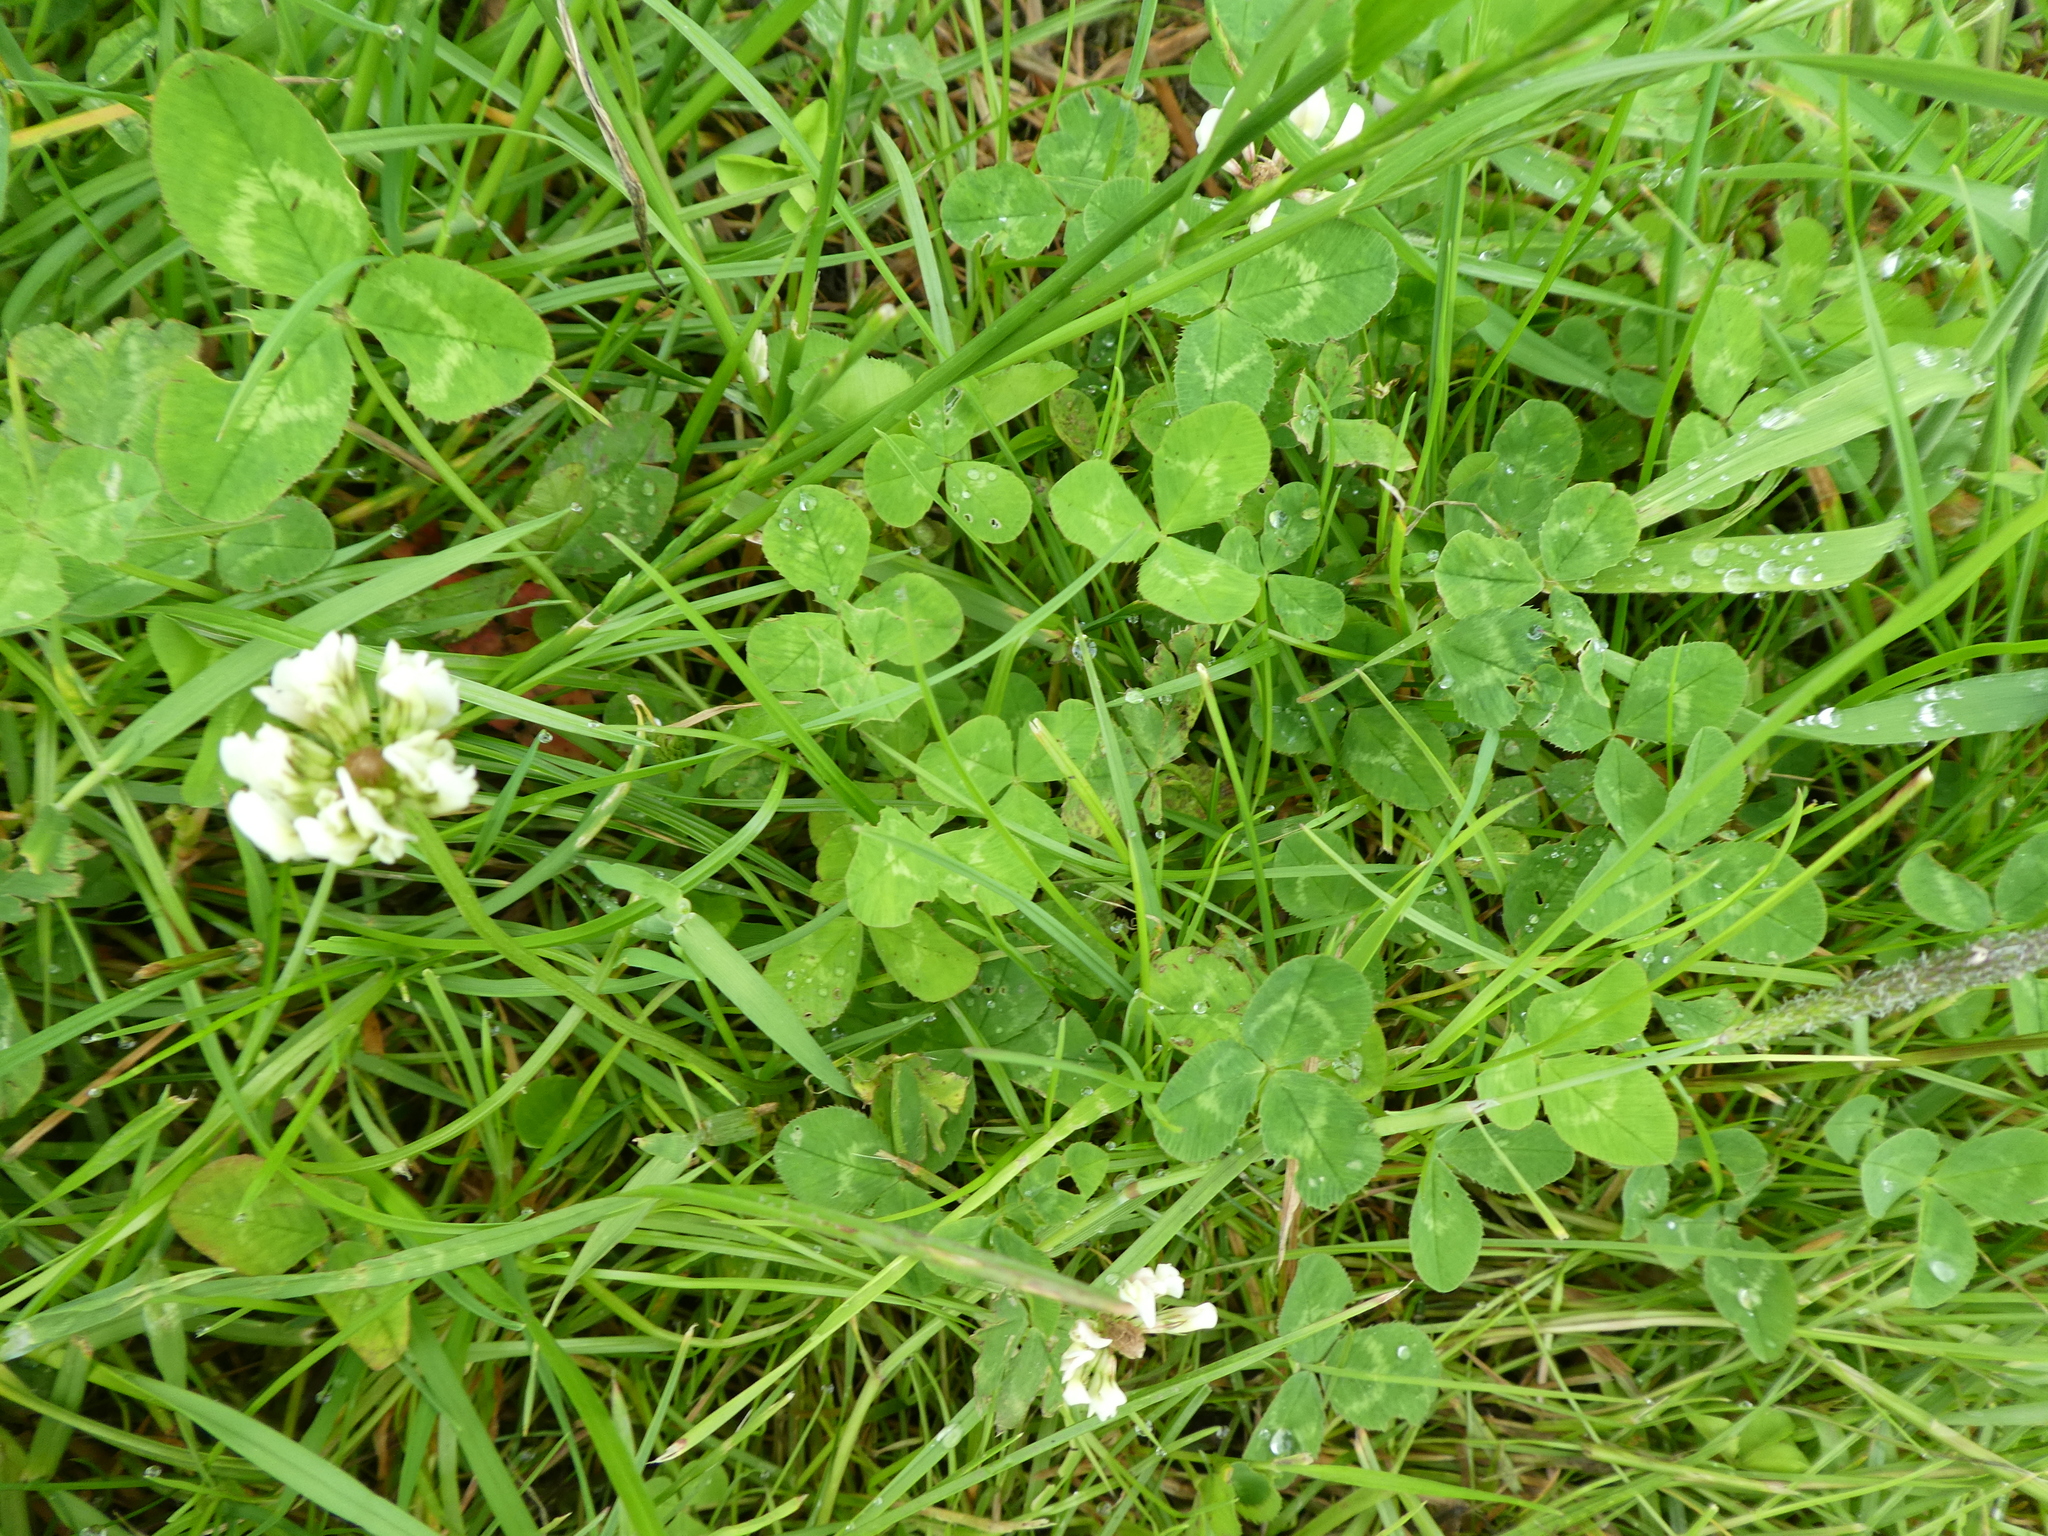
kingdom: Plantae
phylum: Tracheophyta
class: Magnoliopsida
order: Fabales
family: Fabaceae
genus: Trifolium
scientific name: Trifolium repens
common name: White clover
